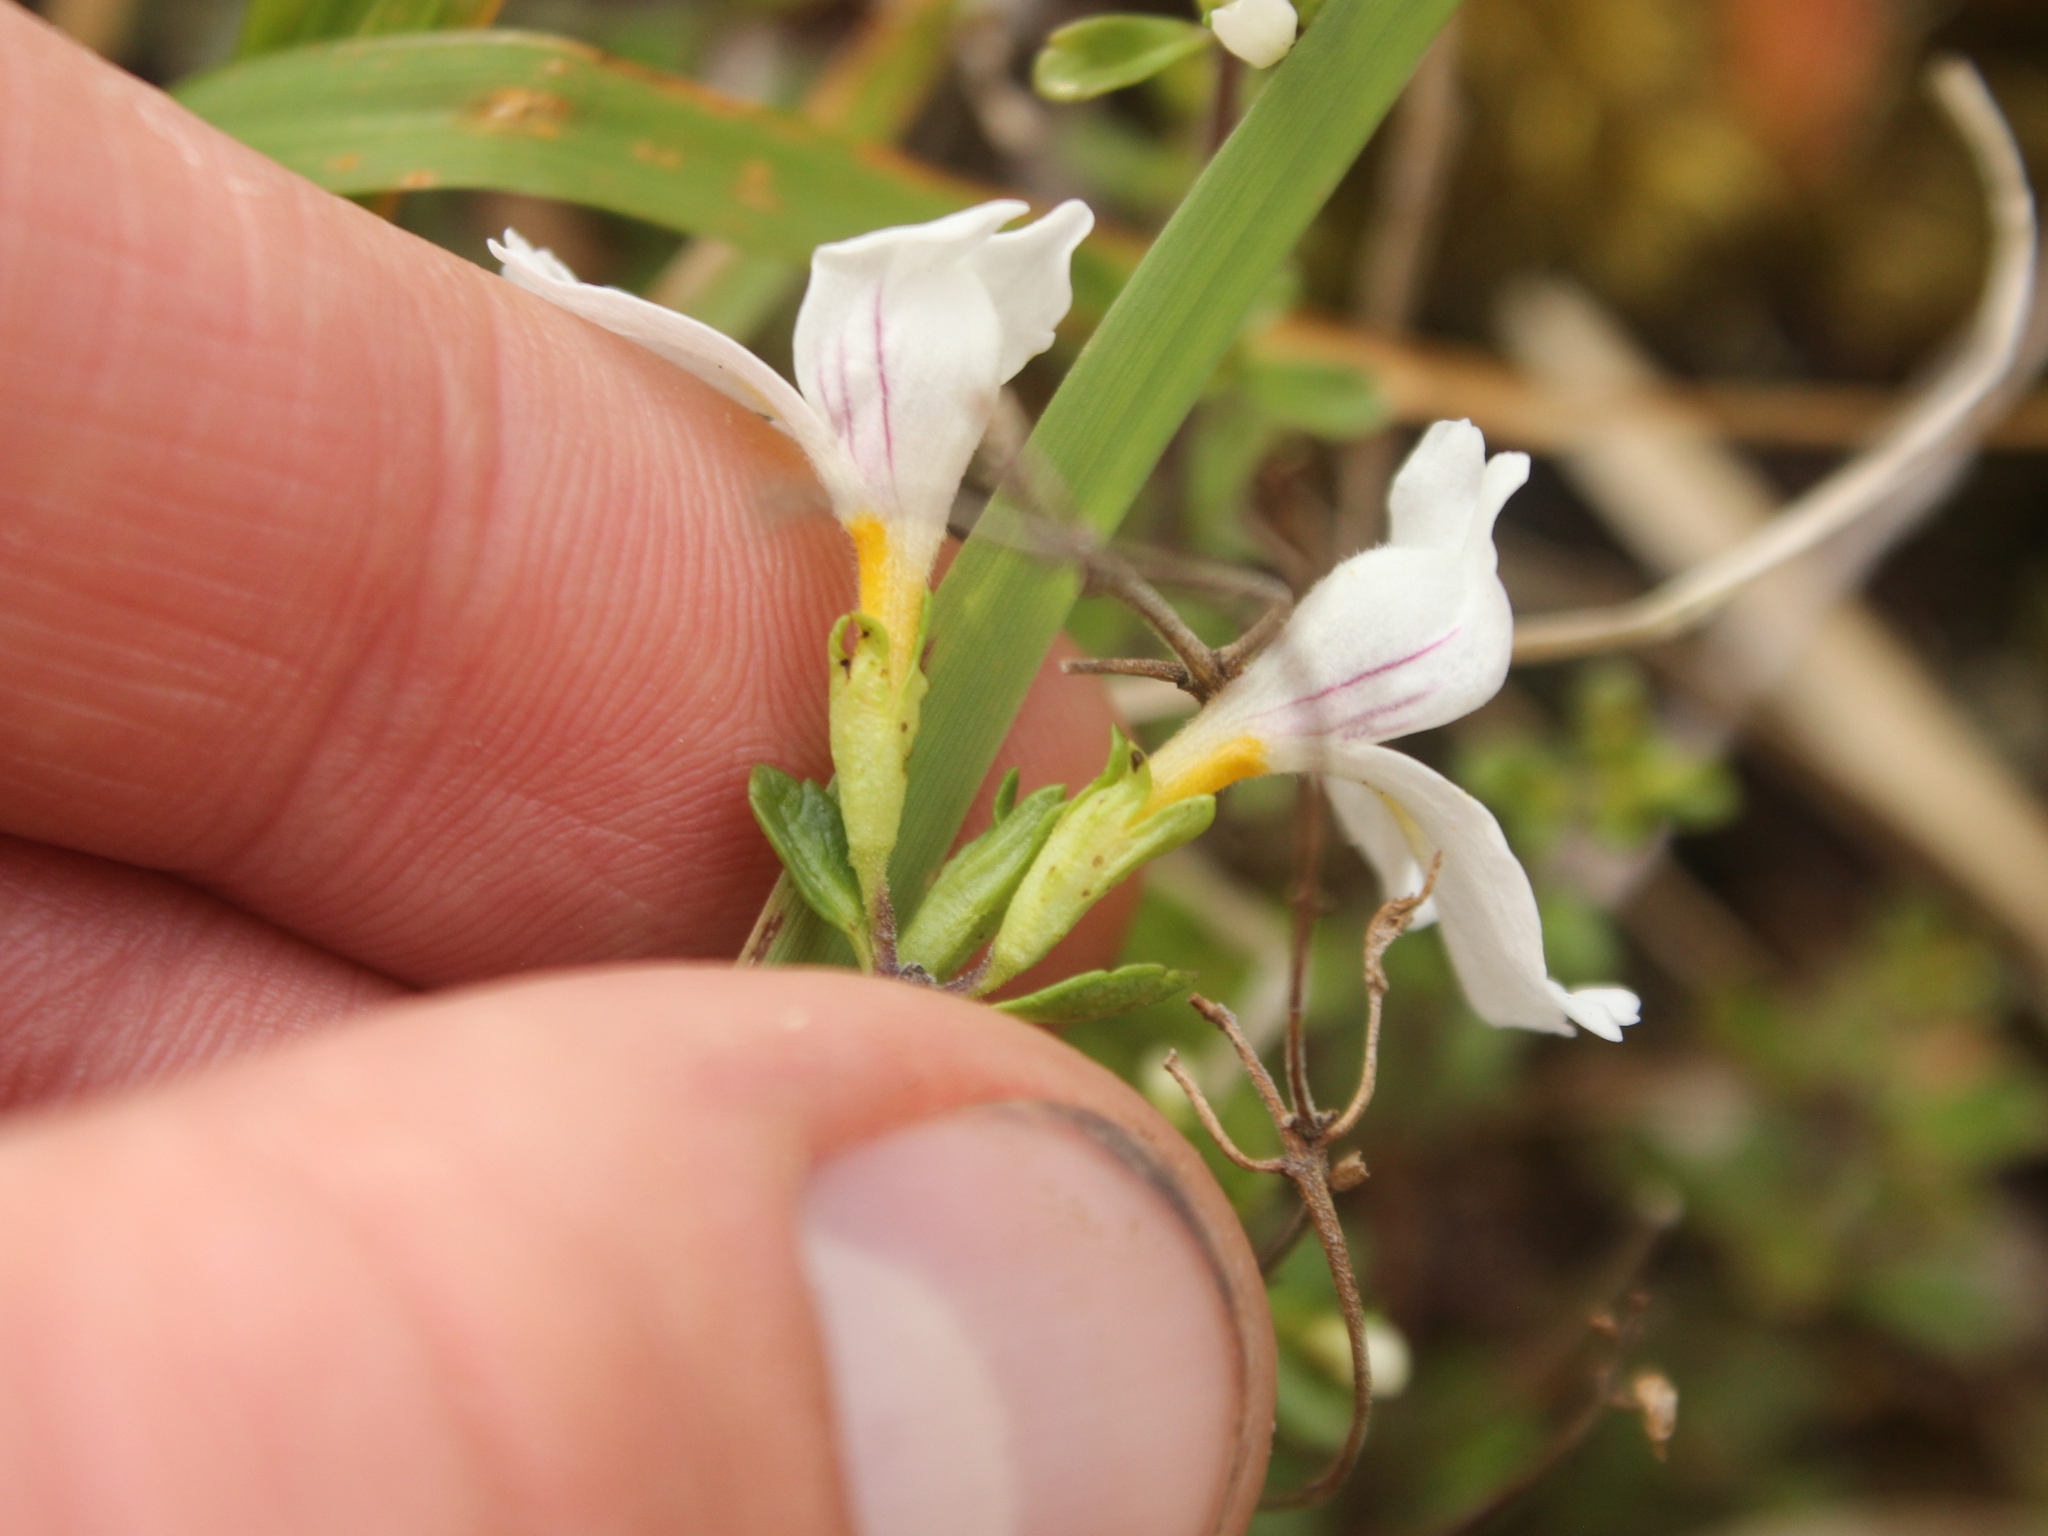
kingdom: Plantae
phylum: Tracheophyta
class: Magnoliopsida
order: Lamiales
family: Orobanchaceae
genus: Euphrasia
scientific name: Euphrasia cuneata
